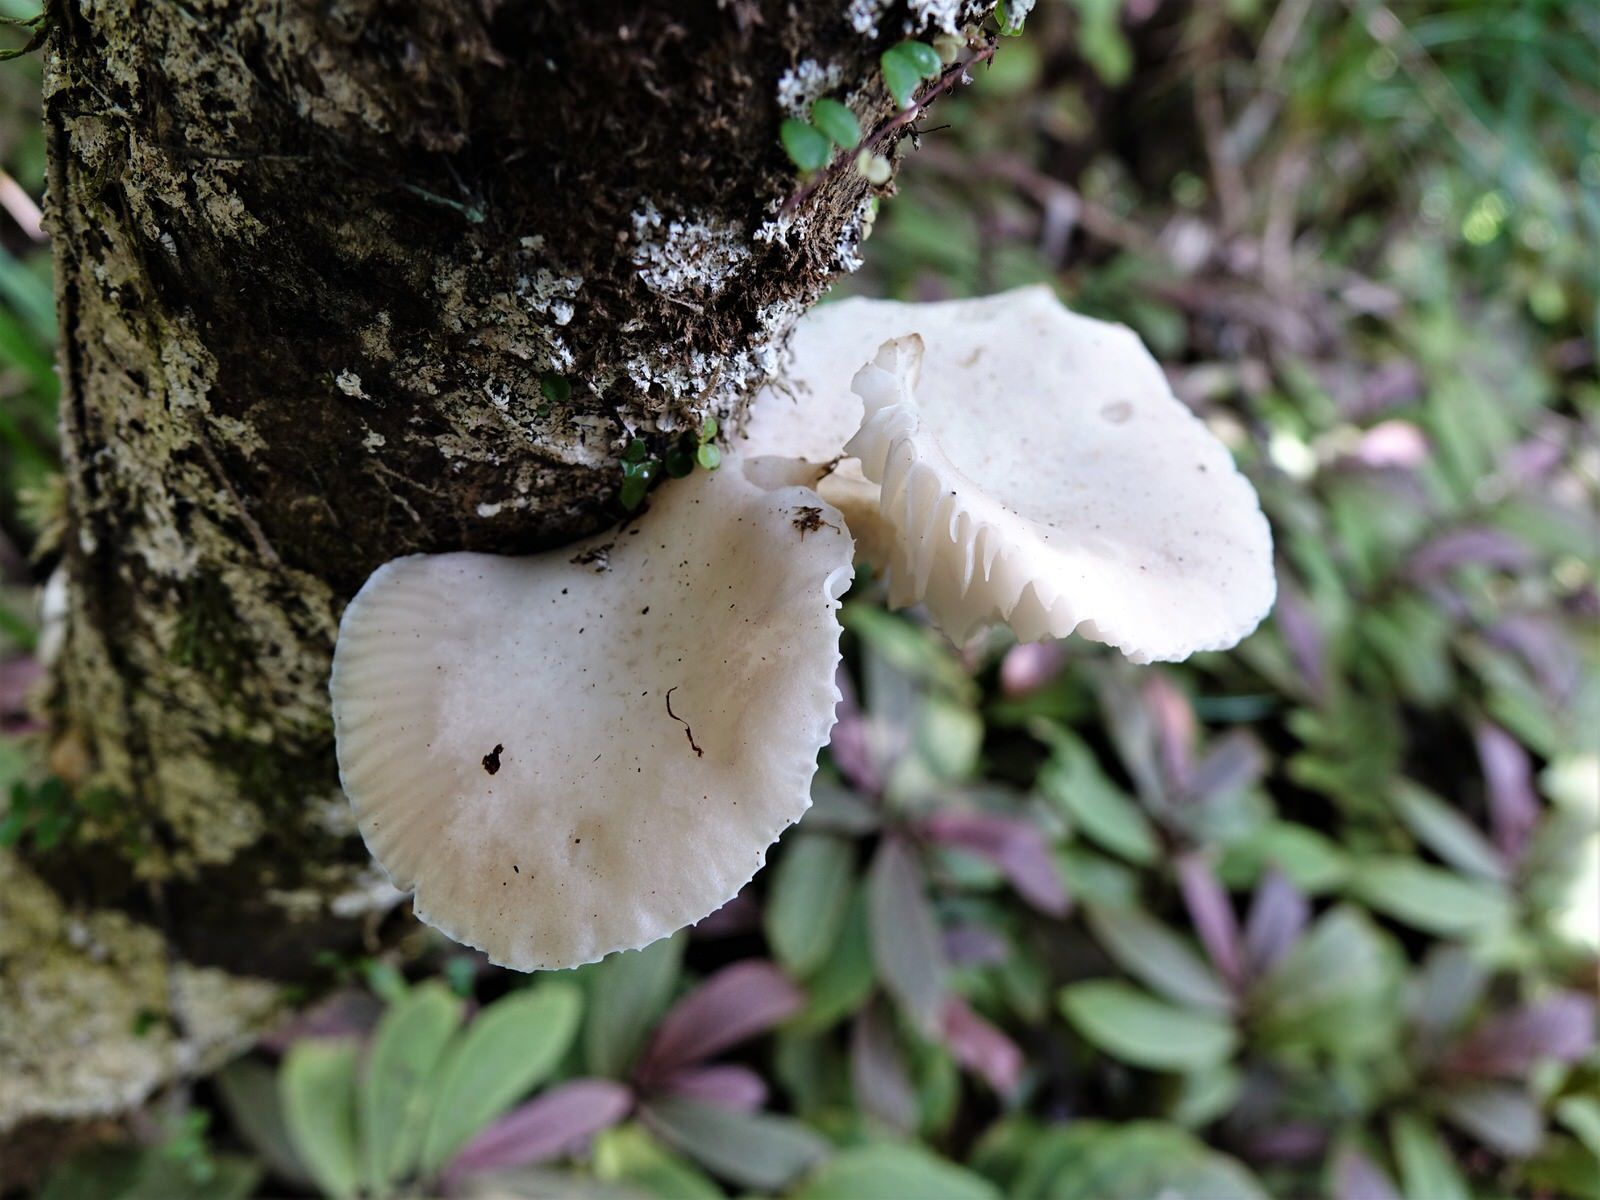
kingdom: Fungi
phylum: Basidiomycota
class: Agaricomycetes
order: Agaricales
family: Physalacriaceae
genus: Oudemansiella
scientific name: Oudemansiella australis
